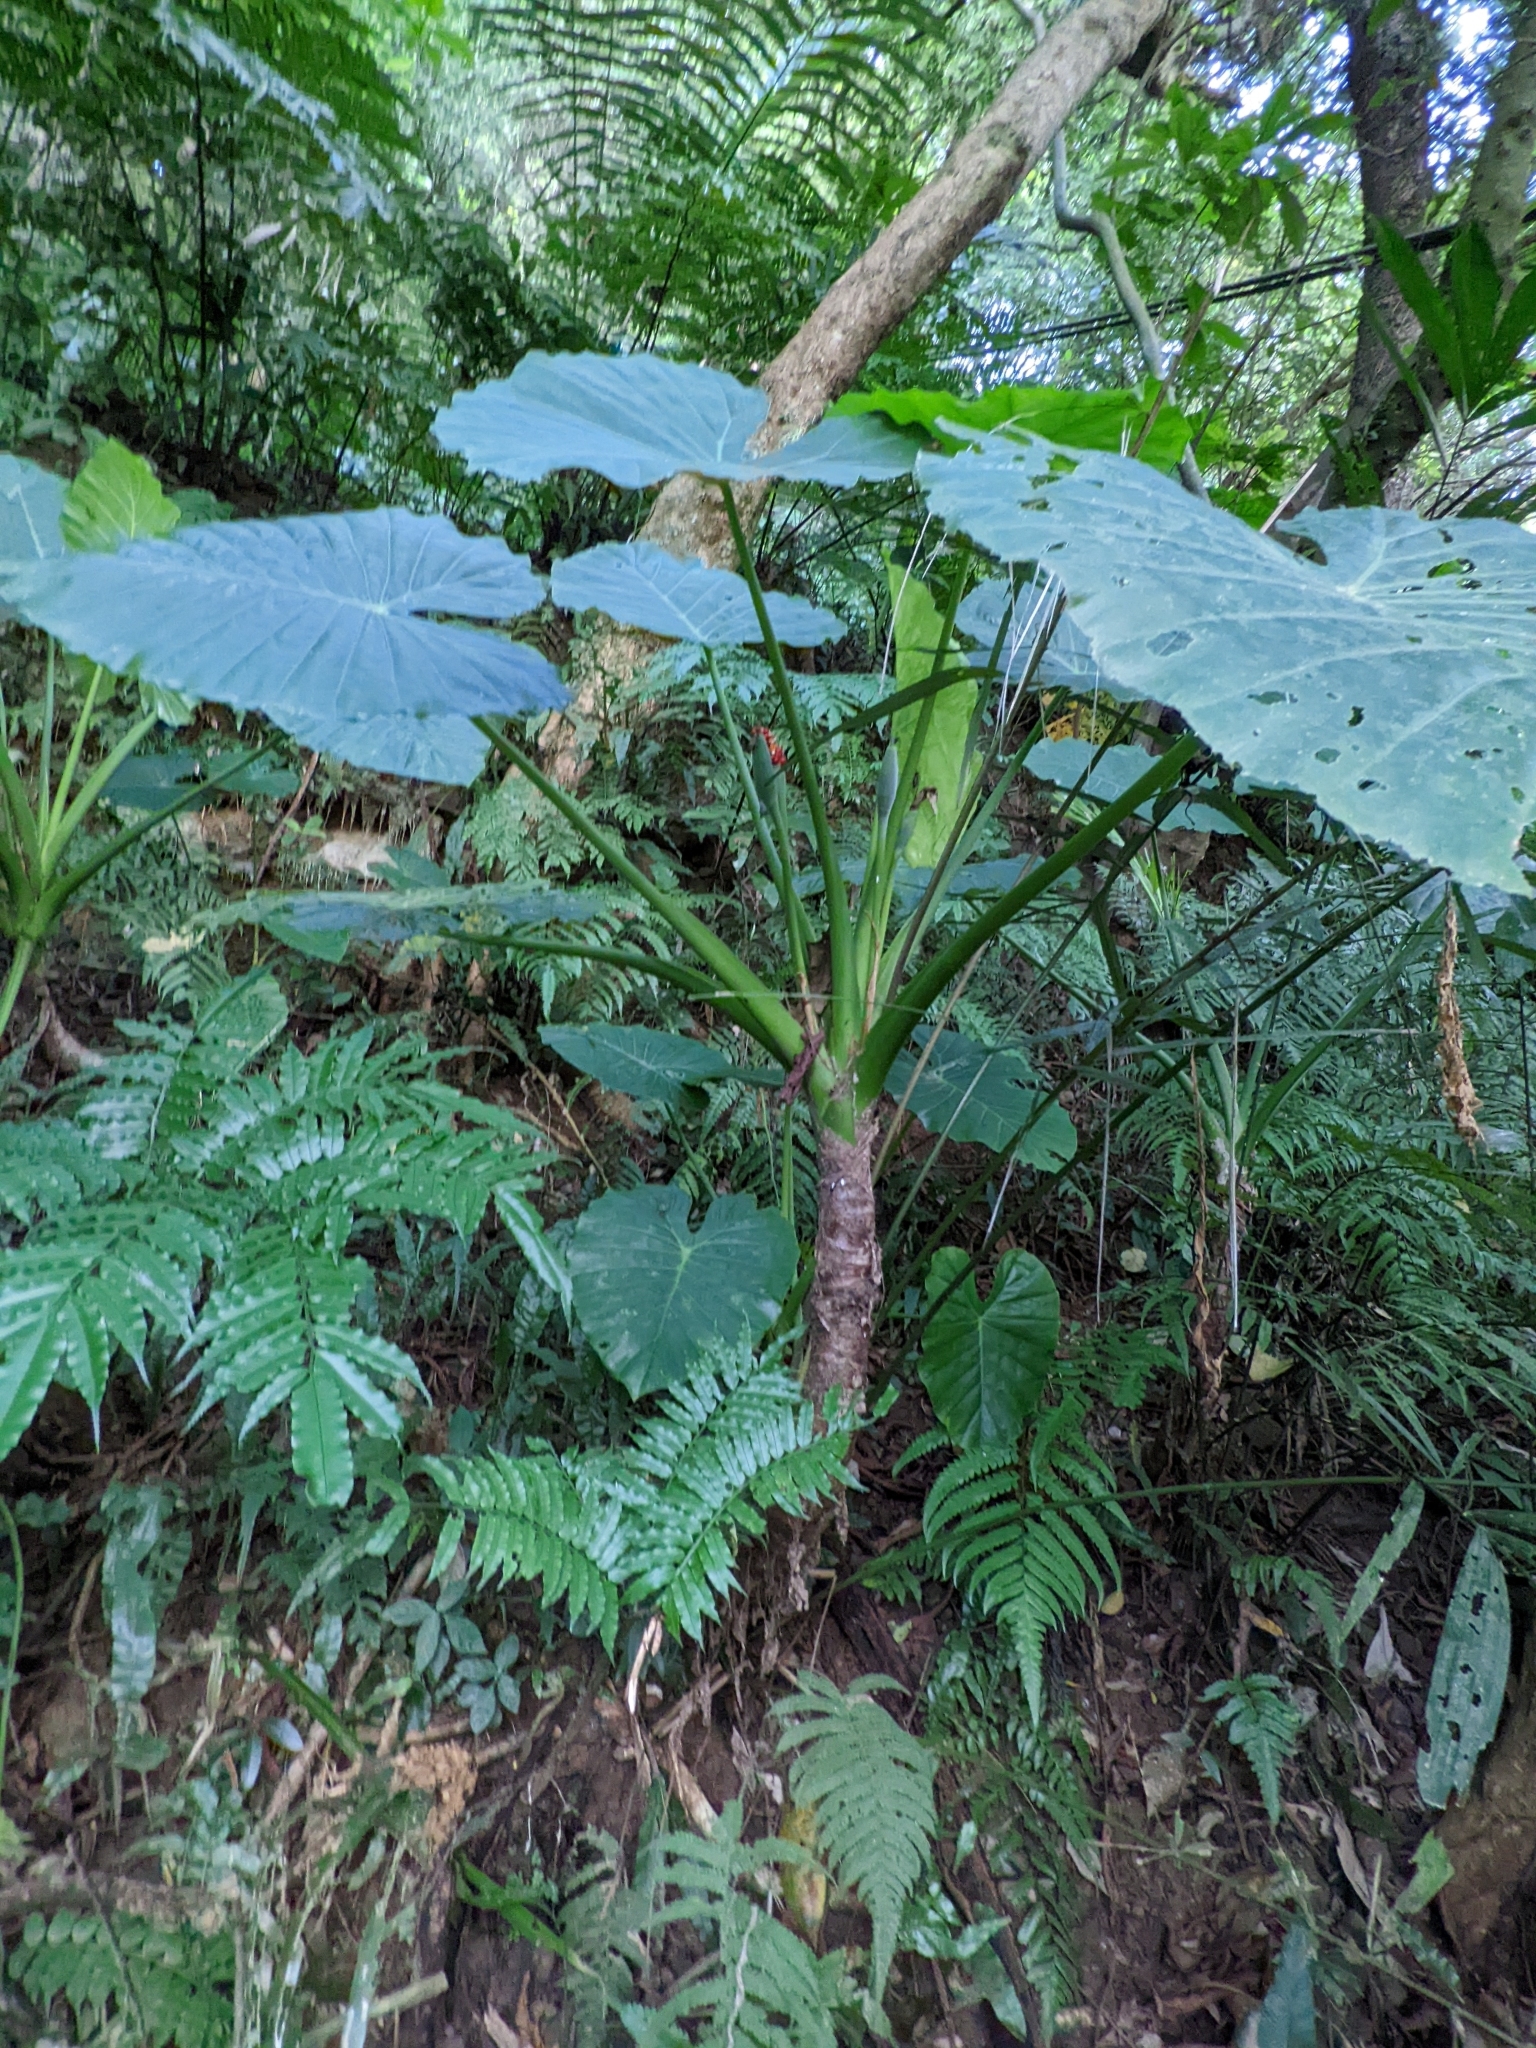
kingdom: Plantae
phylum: Tracheophyta
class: Liliopsida
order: Alismatales
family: Araceae
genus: Alocasia
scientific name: Alocasia odora
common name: Asian taro
